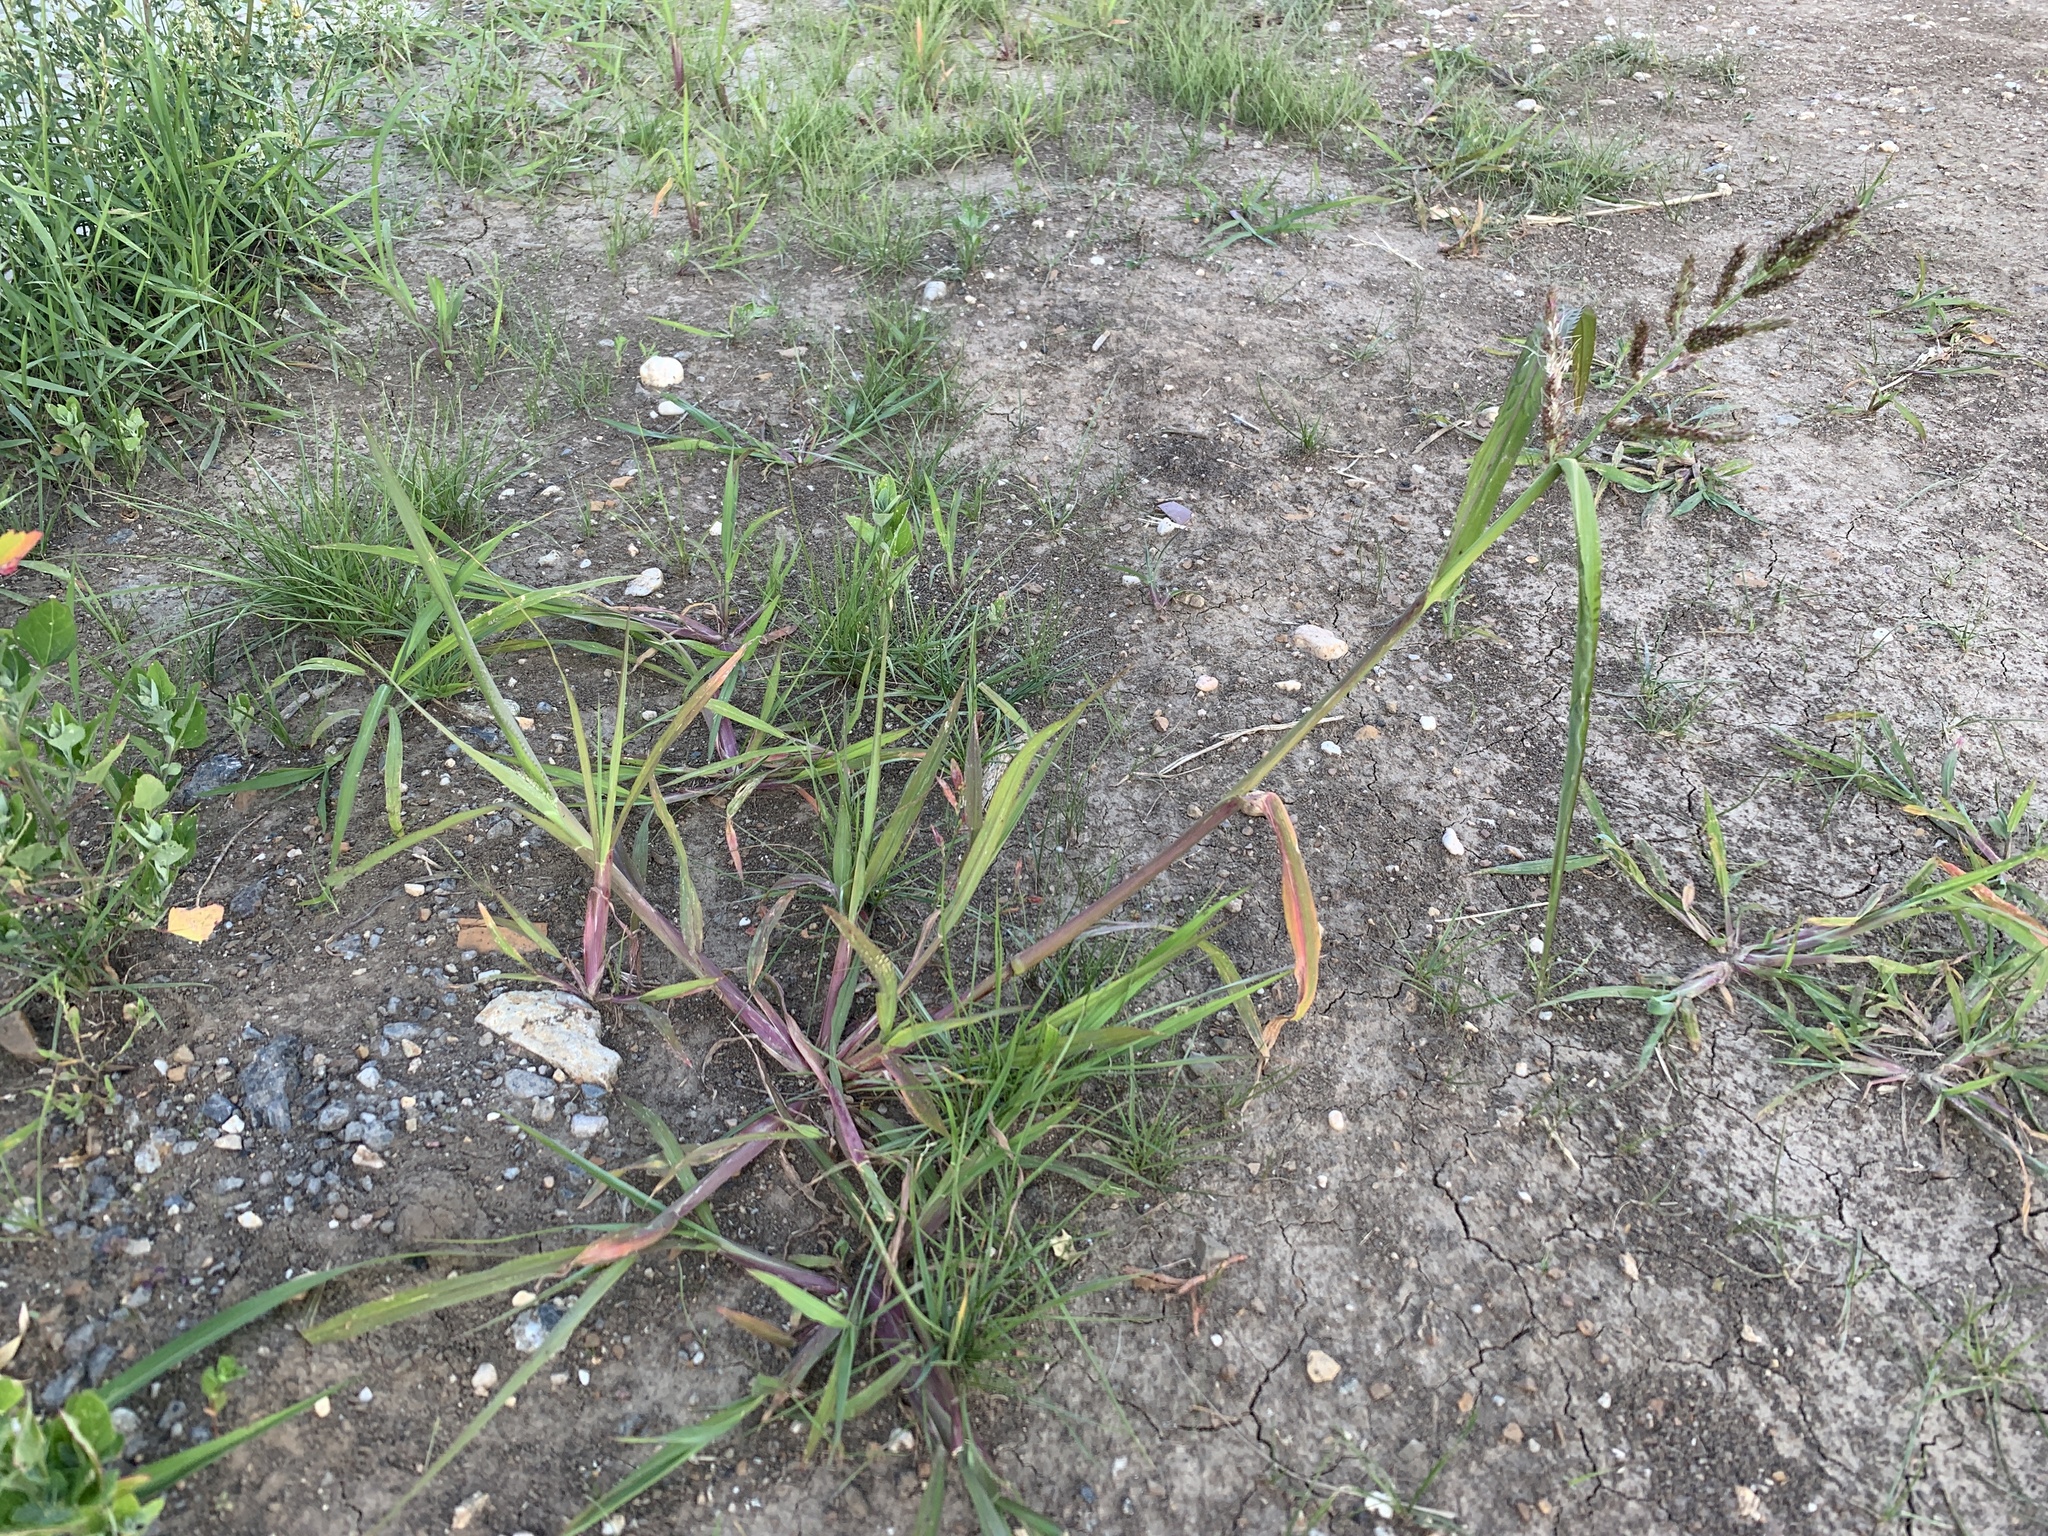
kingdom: Plantae
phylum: Tracheophyta
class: Liliopsida
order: Poales
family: Poaceae
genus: Echinochloa
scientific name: Echinochloa crus-galli
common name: Cockspur
